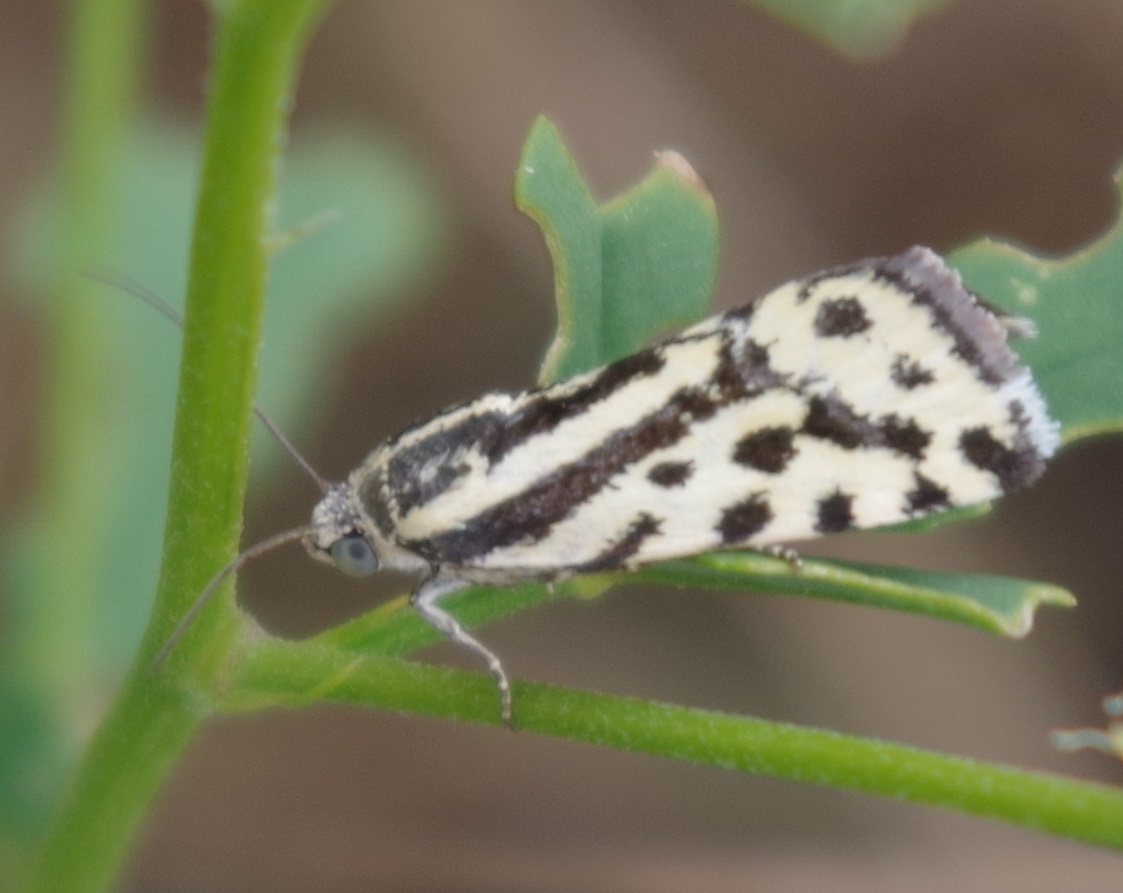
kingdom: Animalia
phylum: Arthropoda
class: Insecta
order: Lepidoptera
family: Noctuidae
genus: Acontia
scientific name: Acontia trabealis
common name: Spotted sulphur
